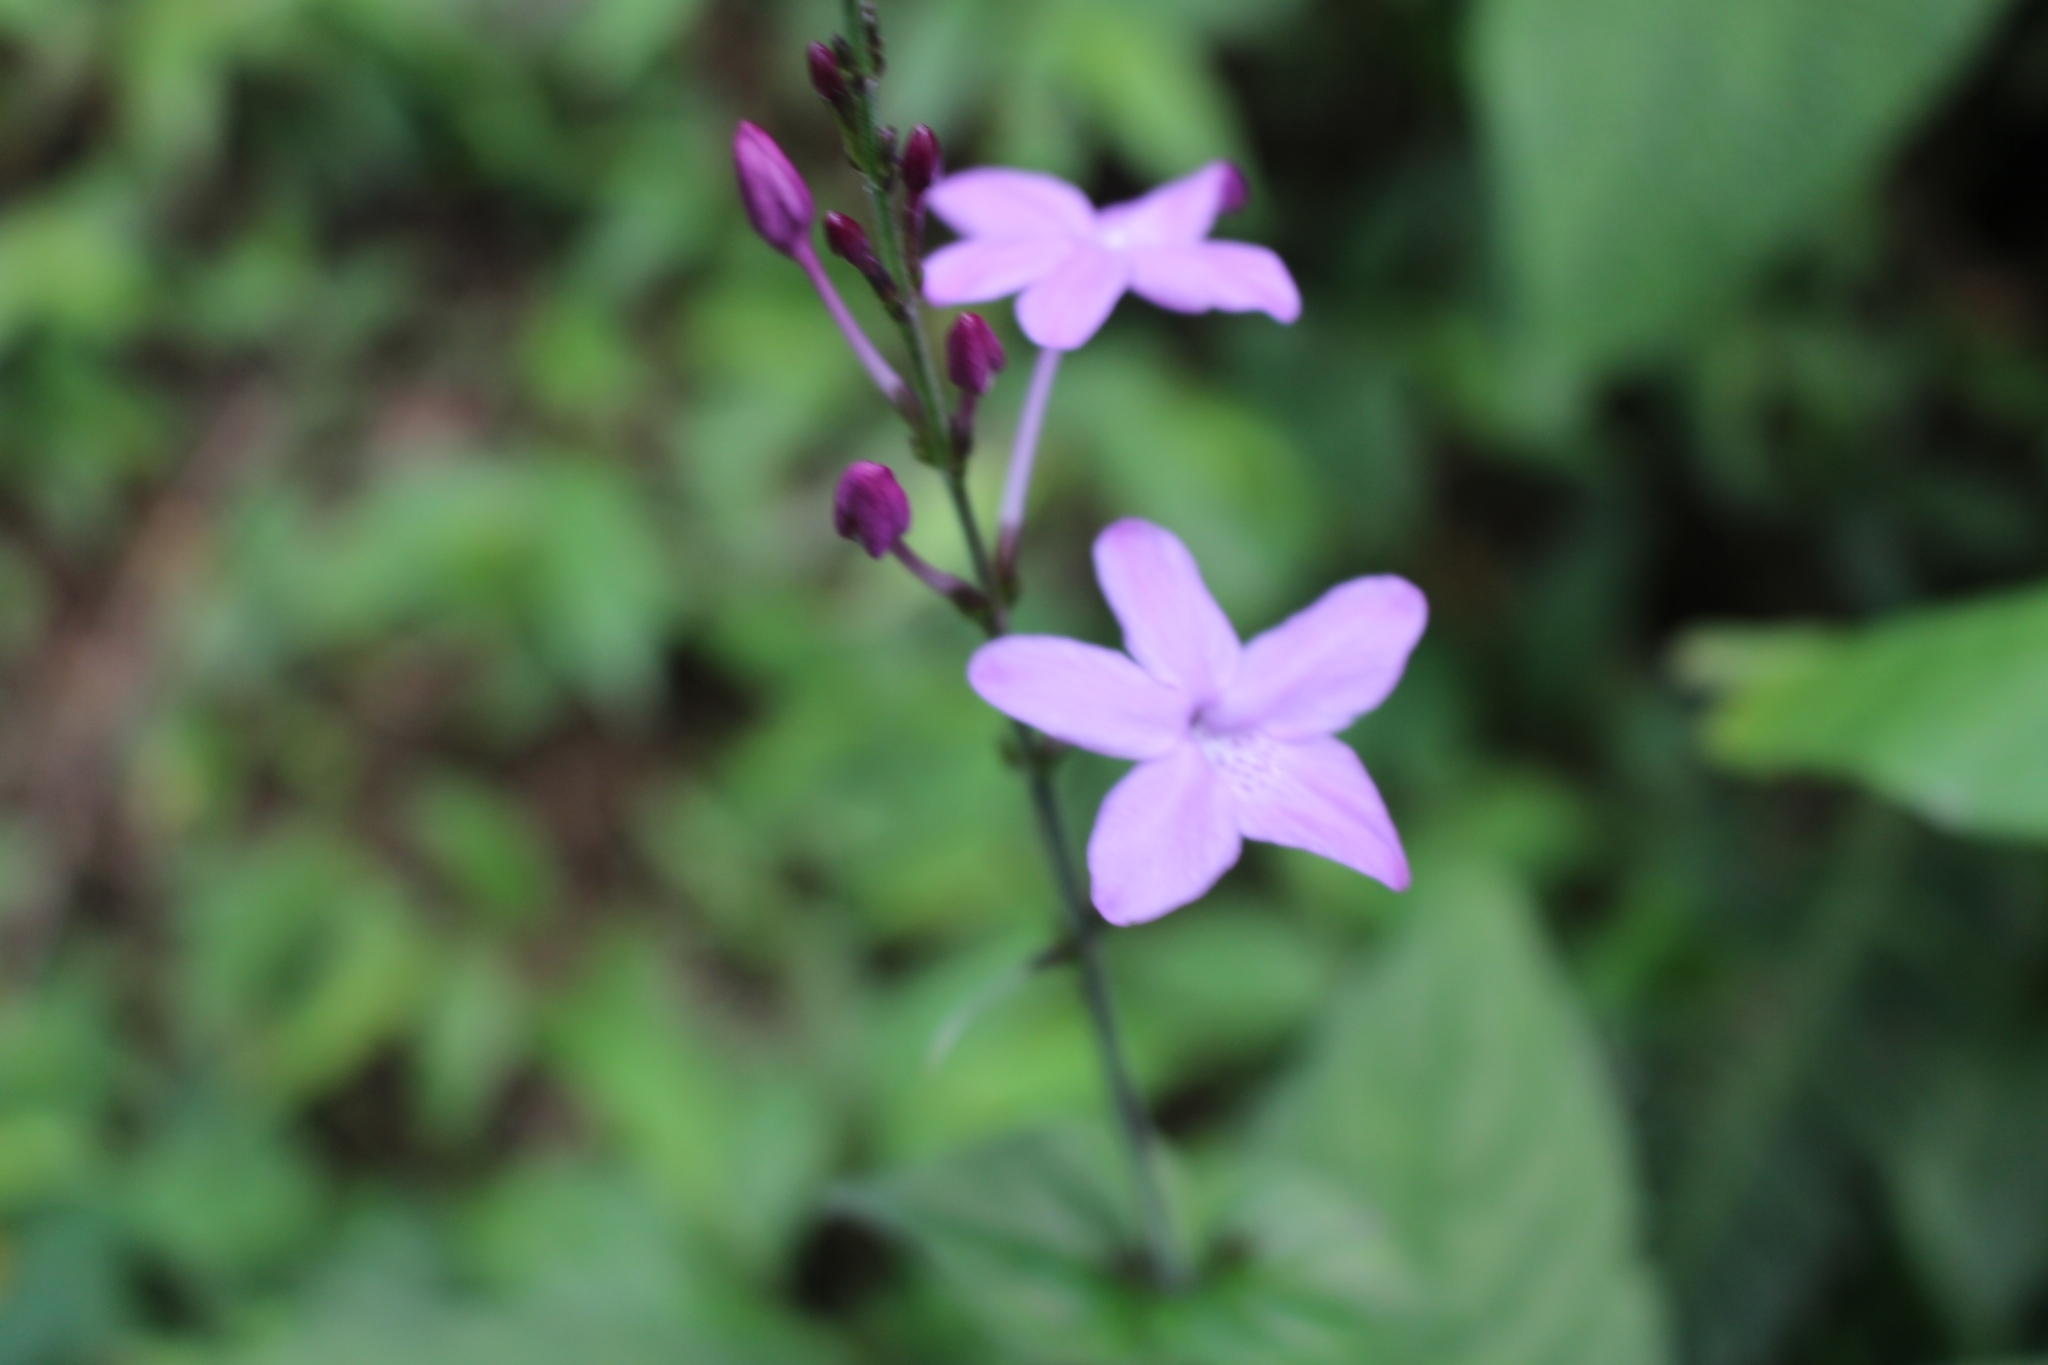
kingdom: Plantae
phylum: Tracheophyta
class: Magnoliopsida
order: Lamiales
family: Acanthaceae
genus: Pseuderanthemum
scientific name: Pseuderanthemum cuspidatum
